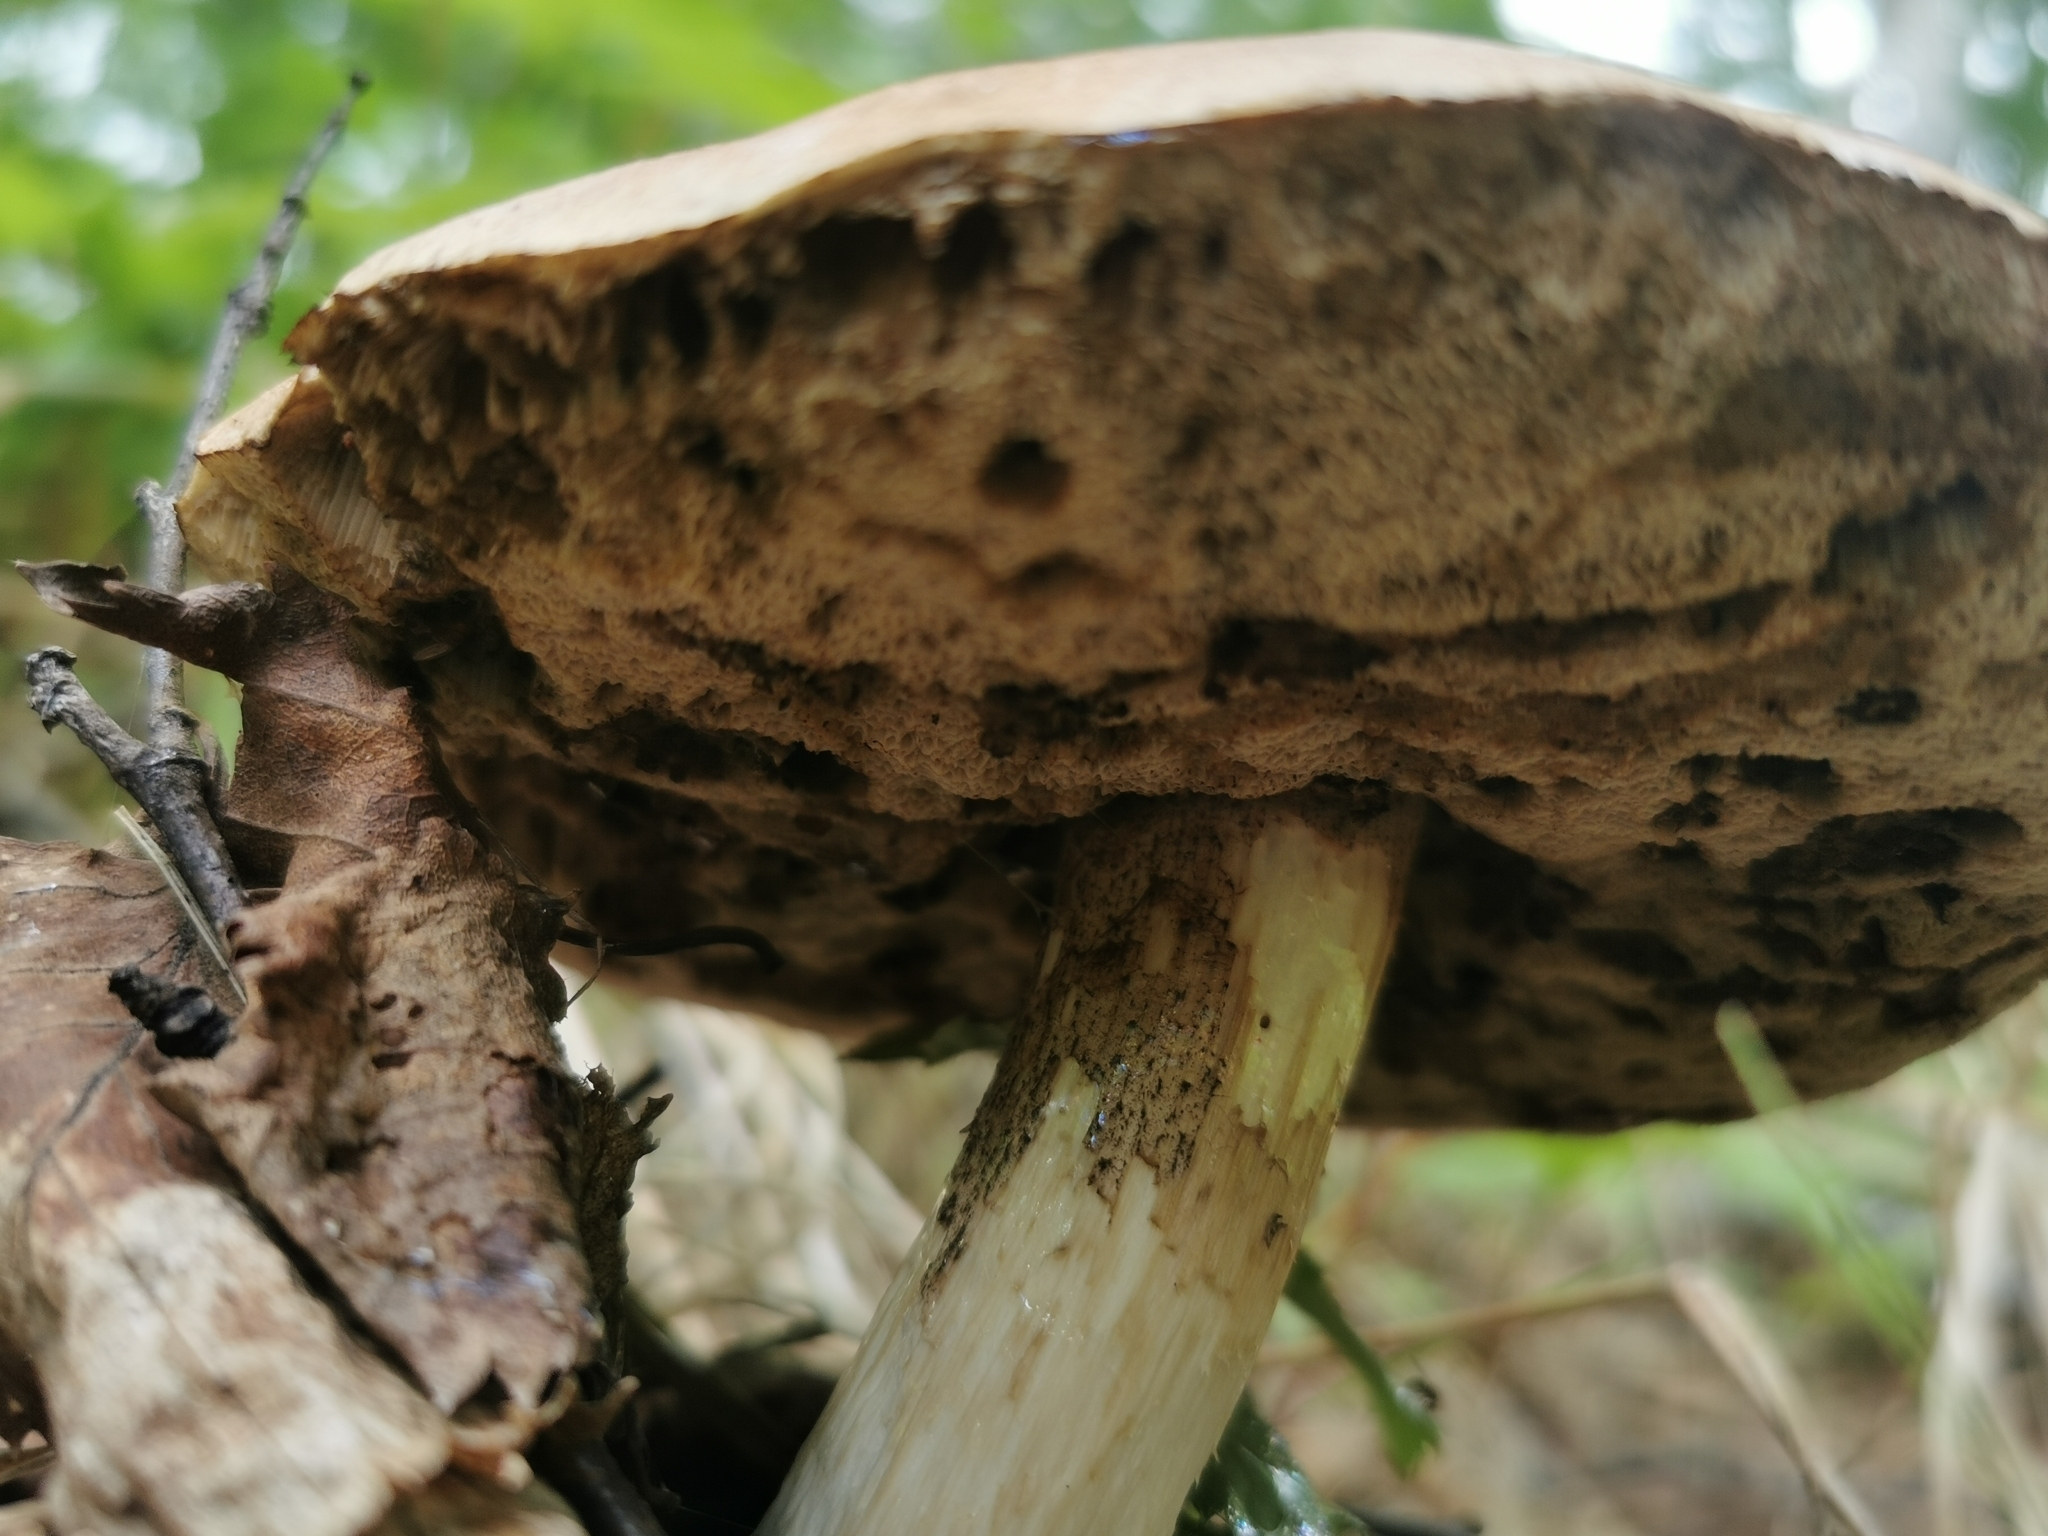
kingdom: Fungi
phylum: Basidiomycota
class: Agaricomycetes
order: Boletales
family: Boletaceae
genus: Leccinum
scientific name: Leccinum scabrum
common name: Blushing bolete
